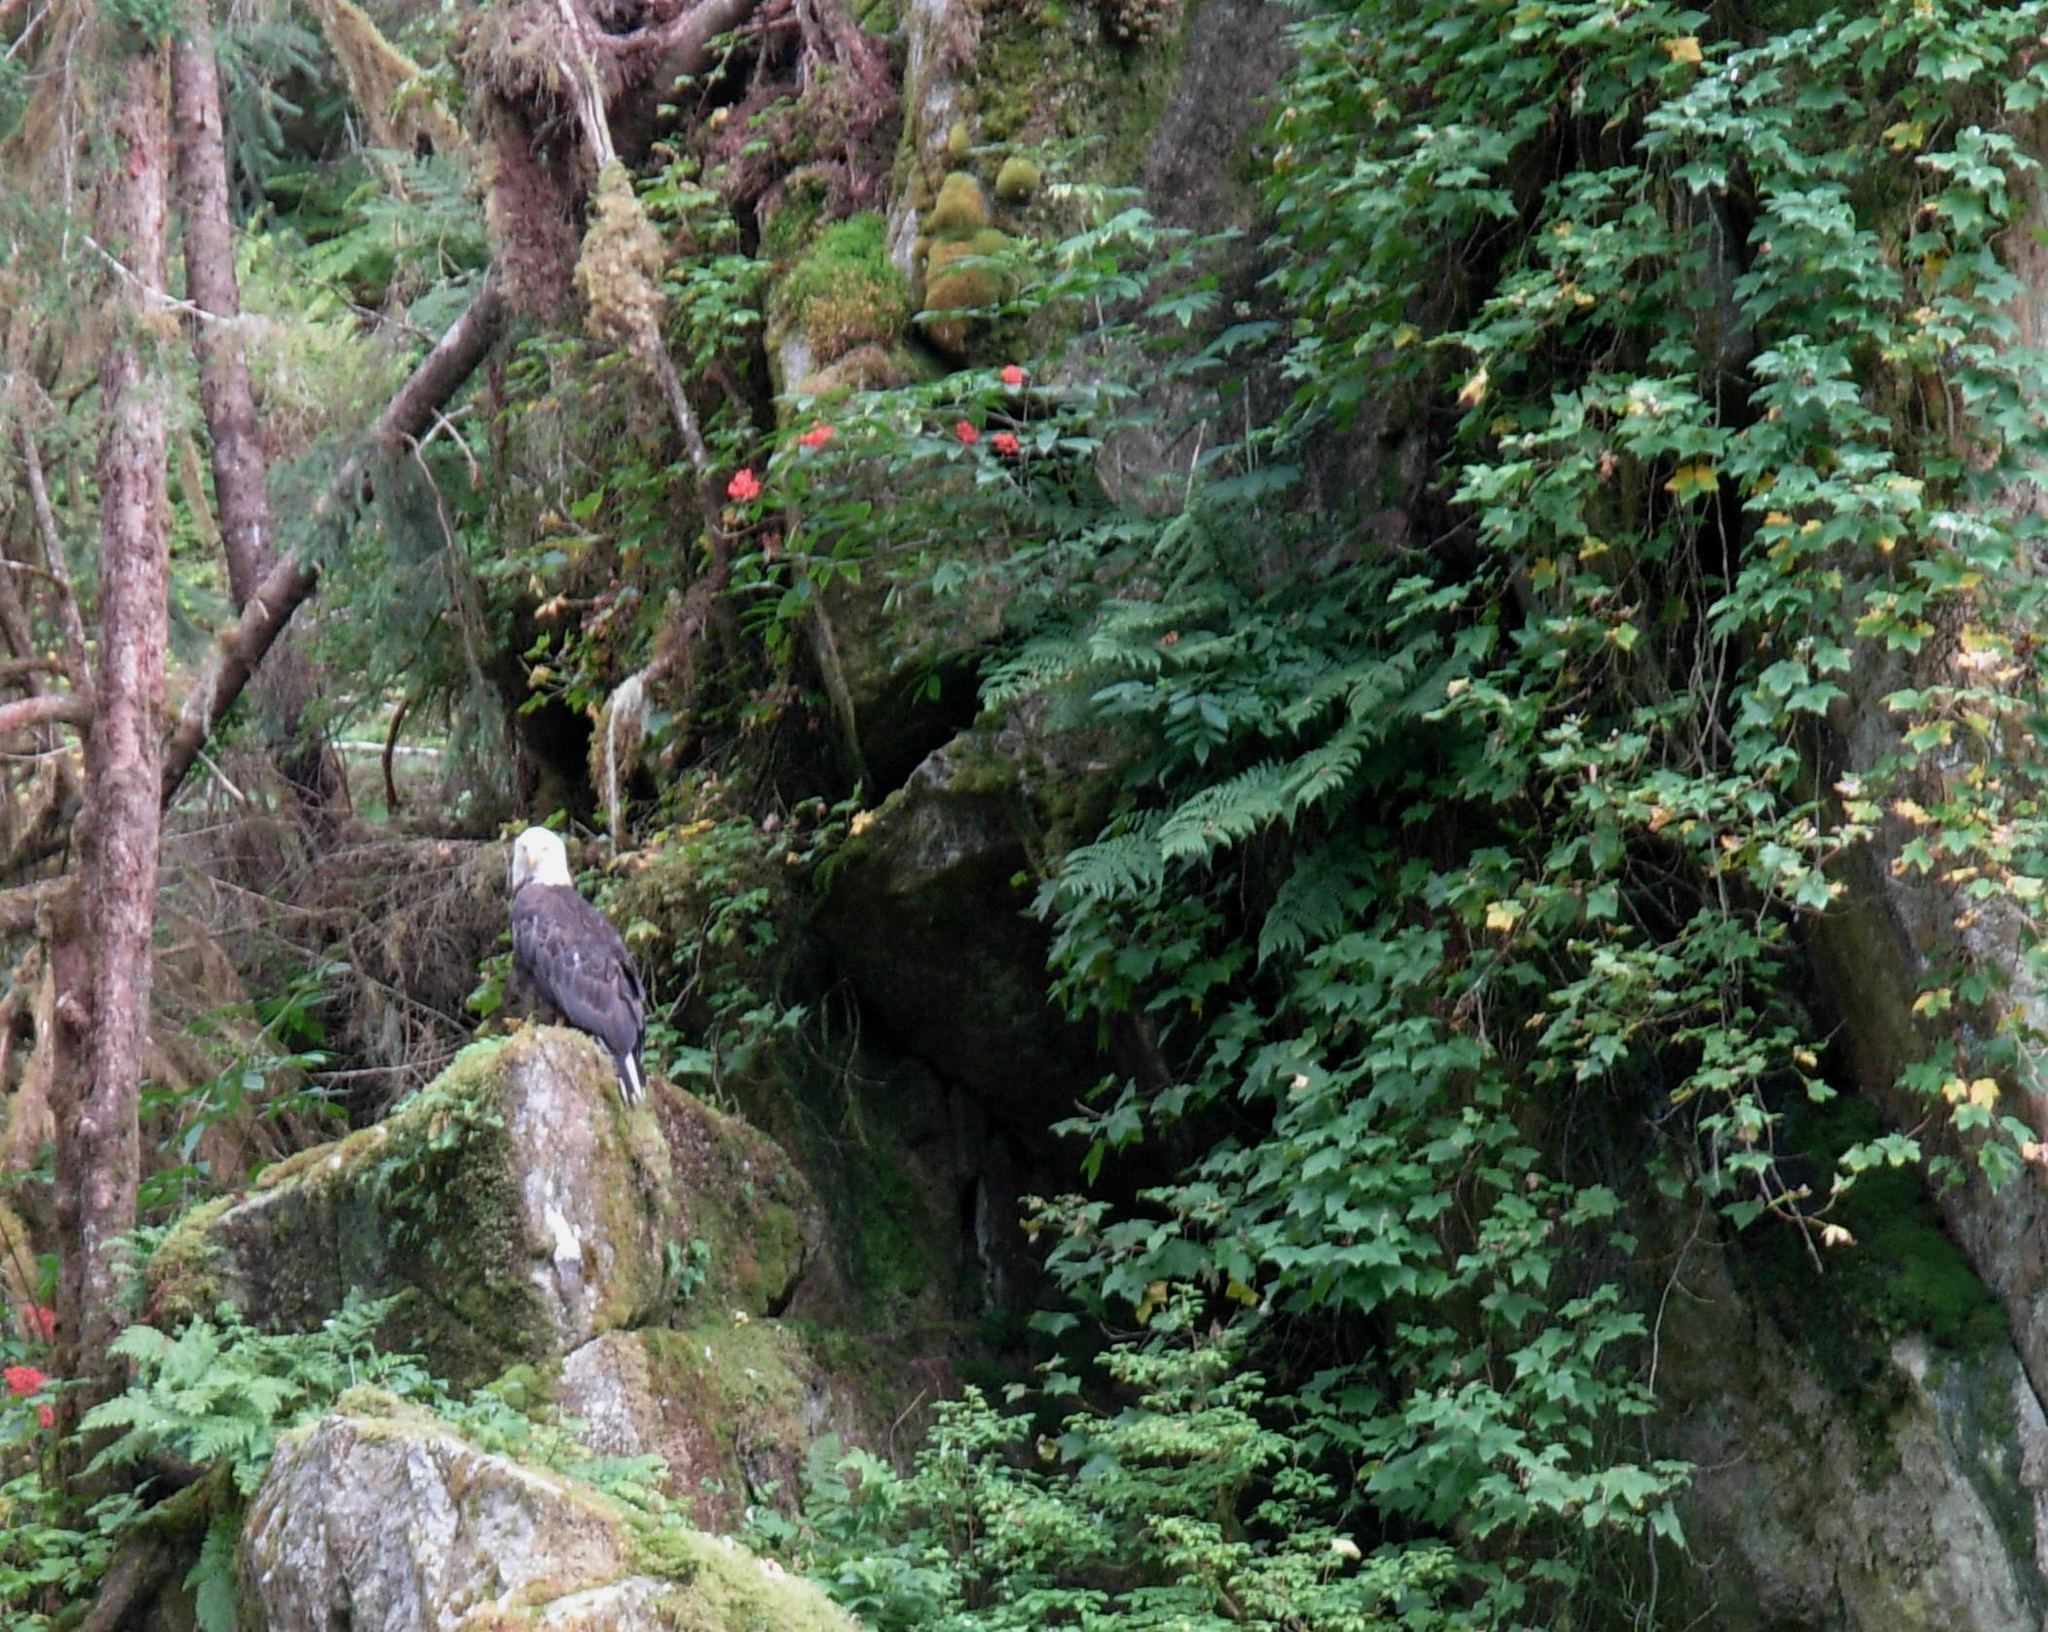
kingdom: Animalia
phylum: Chordata
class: Aves
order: Accipitriformes
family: Accipitridae
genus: Haliaeetus
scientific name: Haliaeetus leucocephalus
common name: Bald eagle
